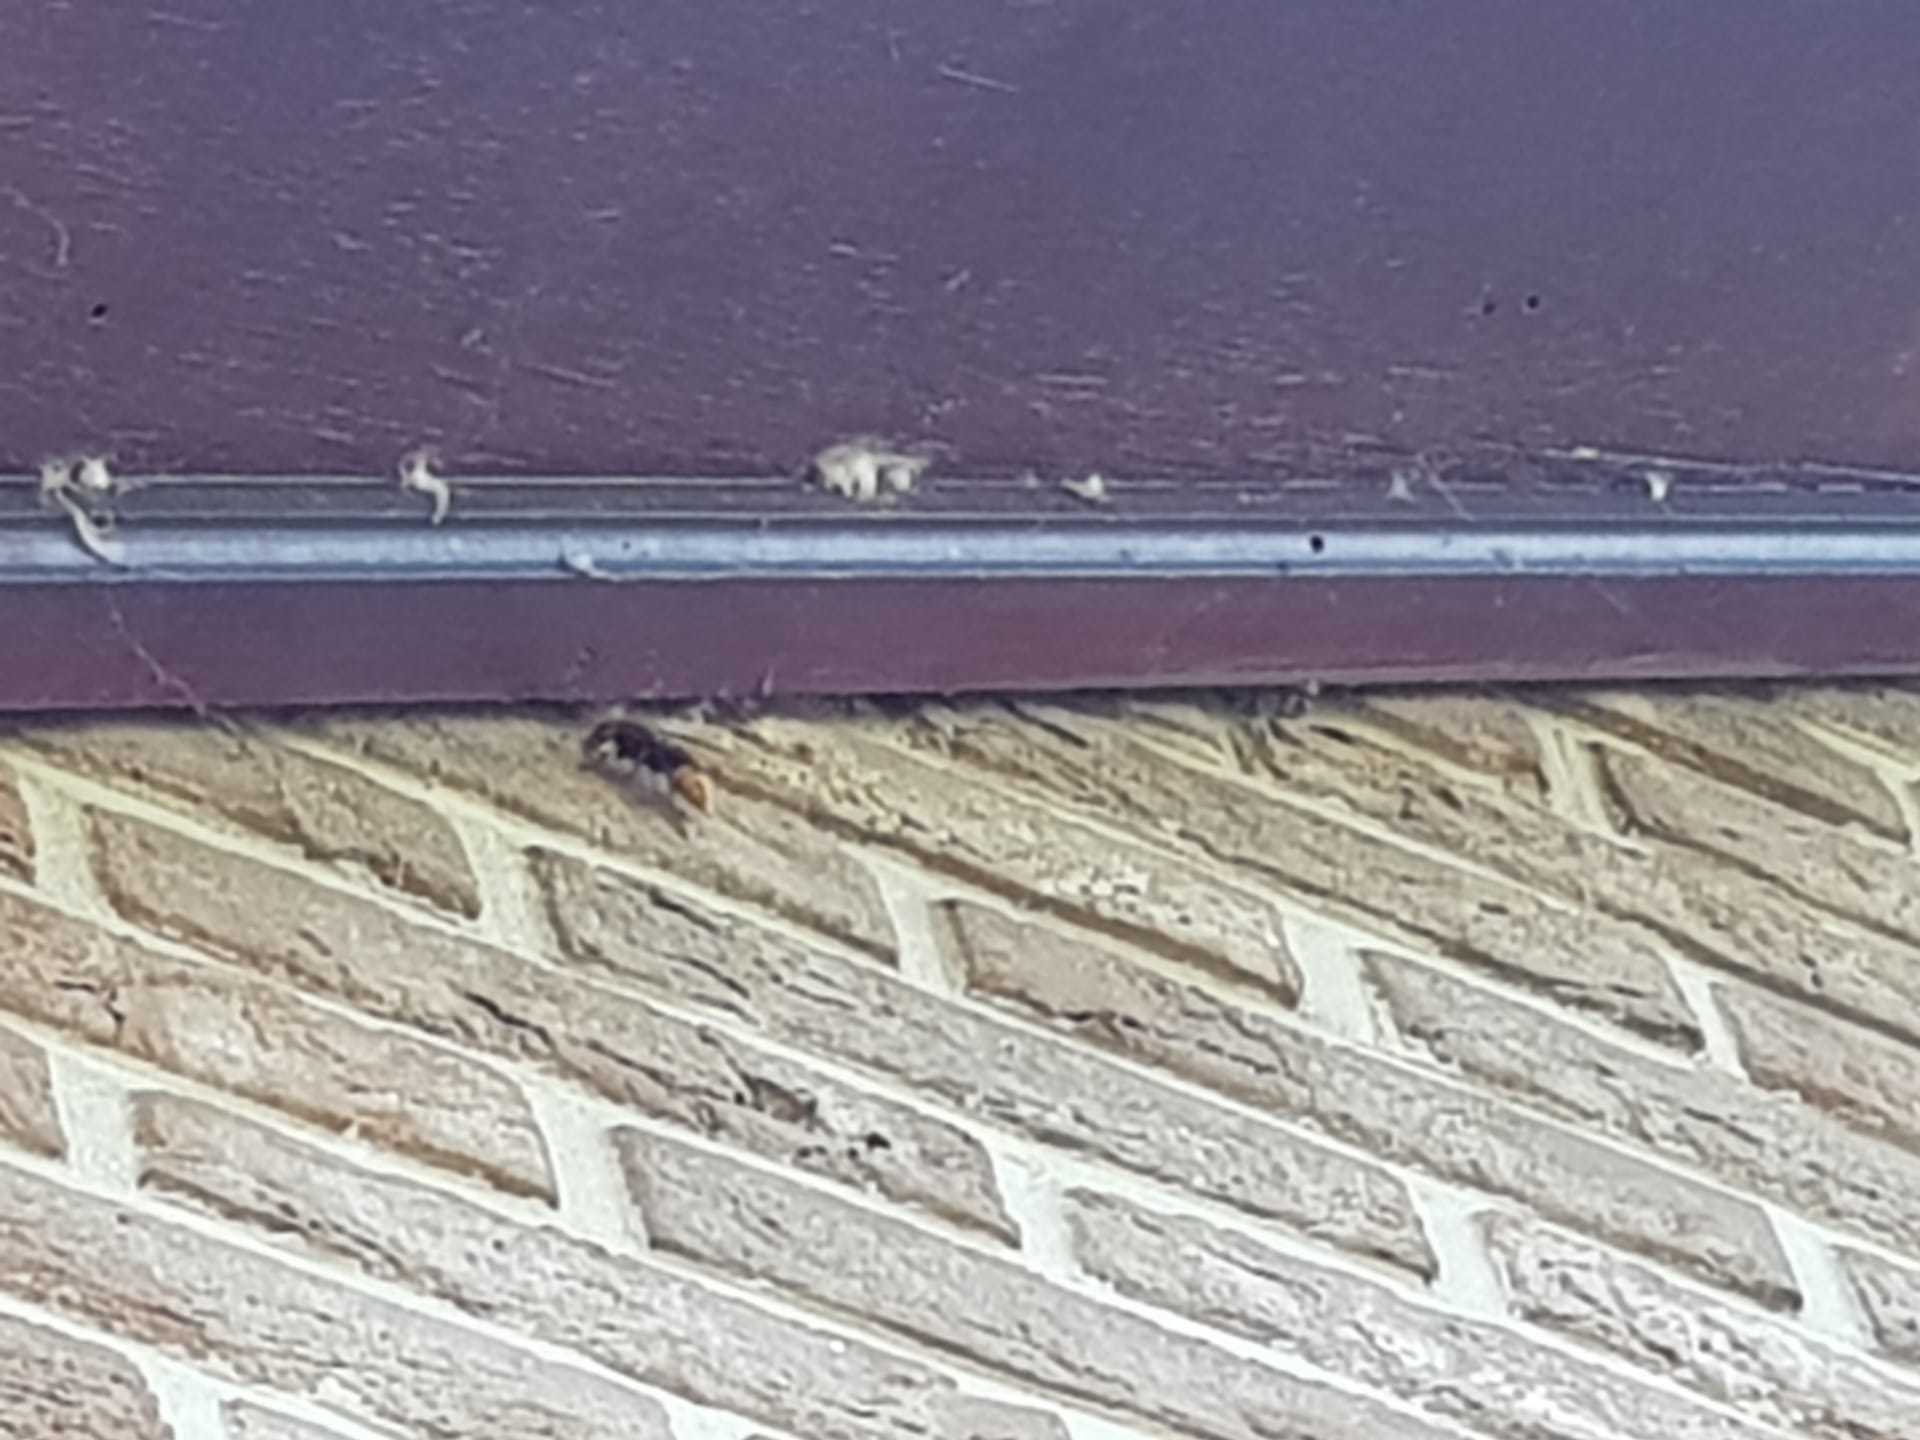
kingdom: Animalia
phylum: Arthropoda
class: Insecta
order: Hymenoptera
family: Vespidae
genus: Vespa
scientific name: Vespa crabro
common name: Hornet
